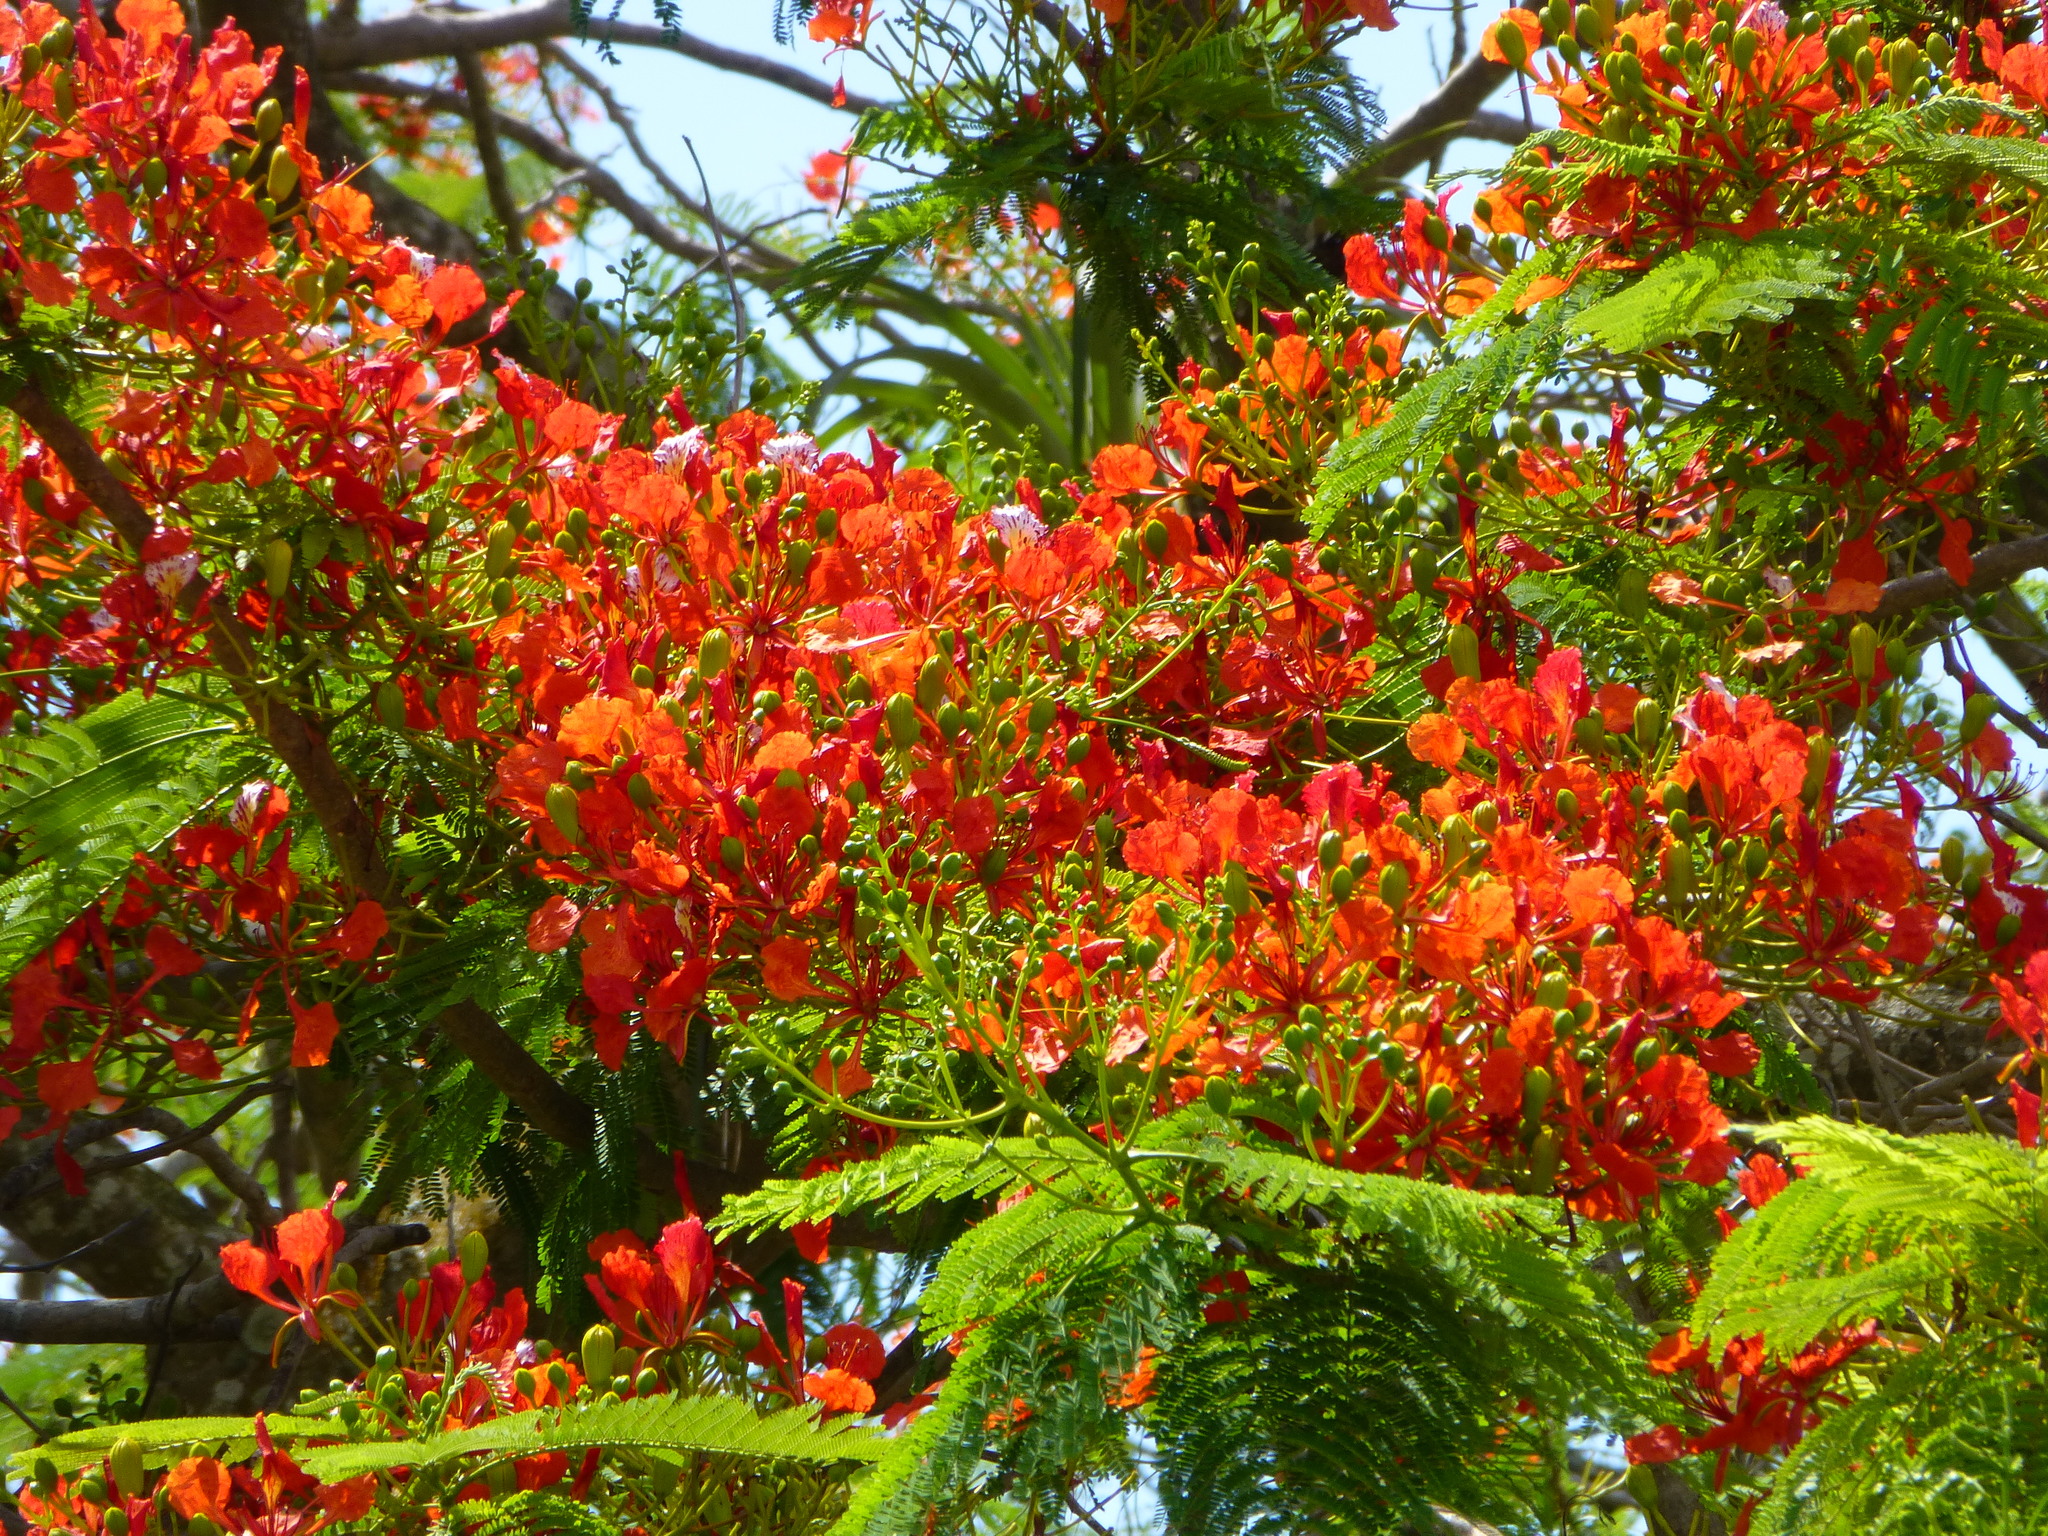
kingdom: Plantae
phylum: Tracheophyta
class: Magnoliopsida
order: Fabales
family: Fabaceae
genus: Delonix
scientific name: Delonix regia
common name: Royal poinciana
